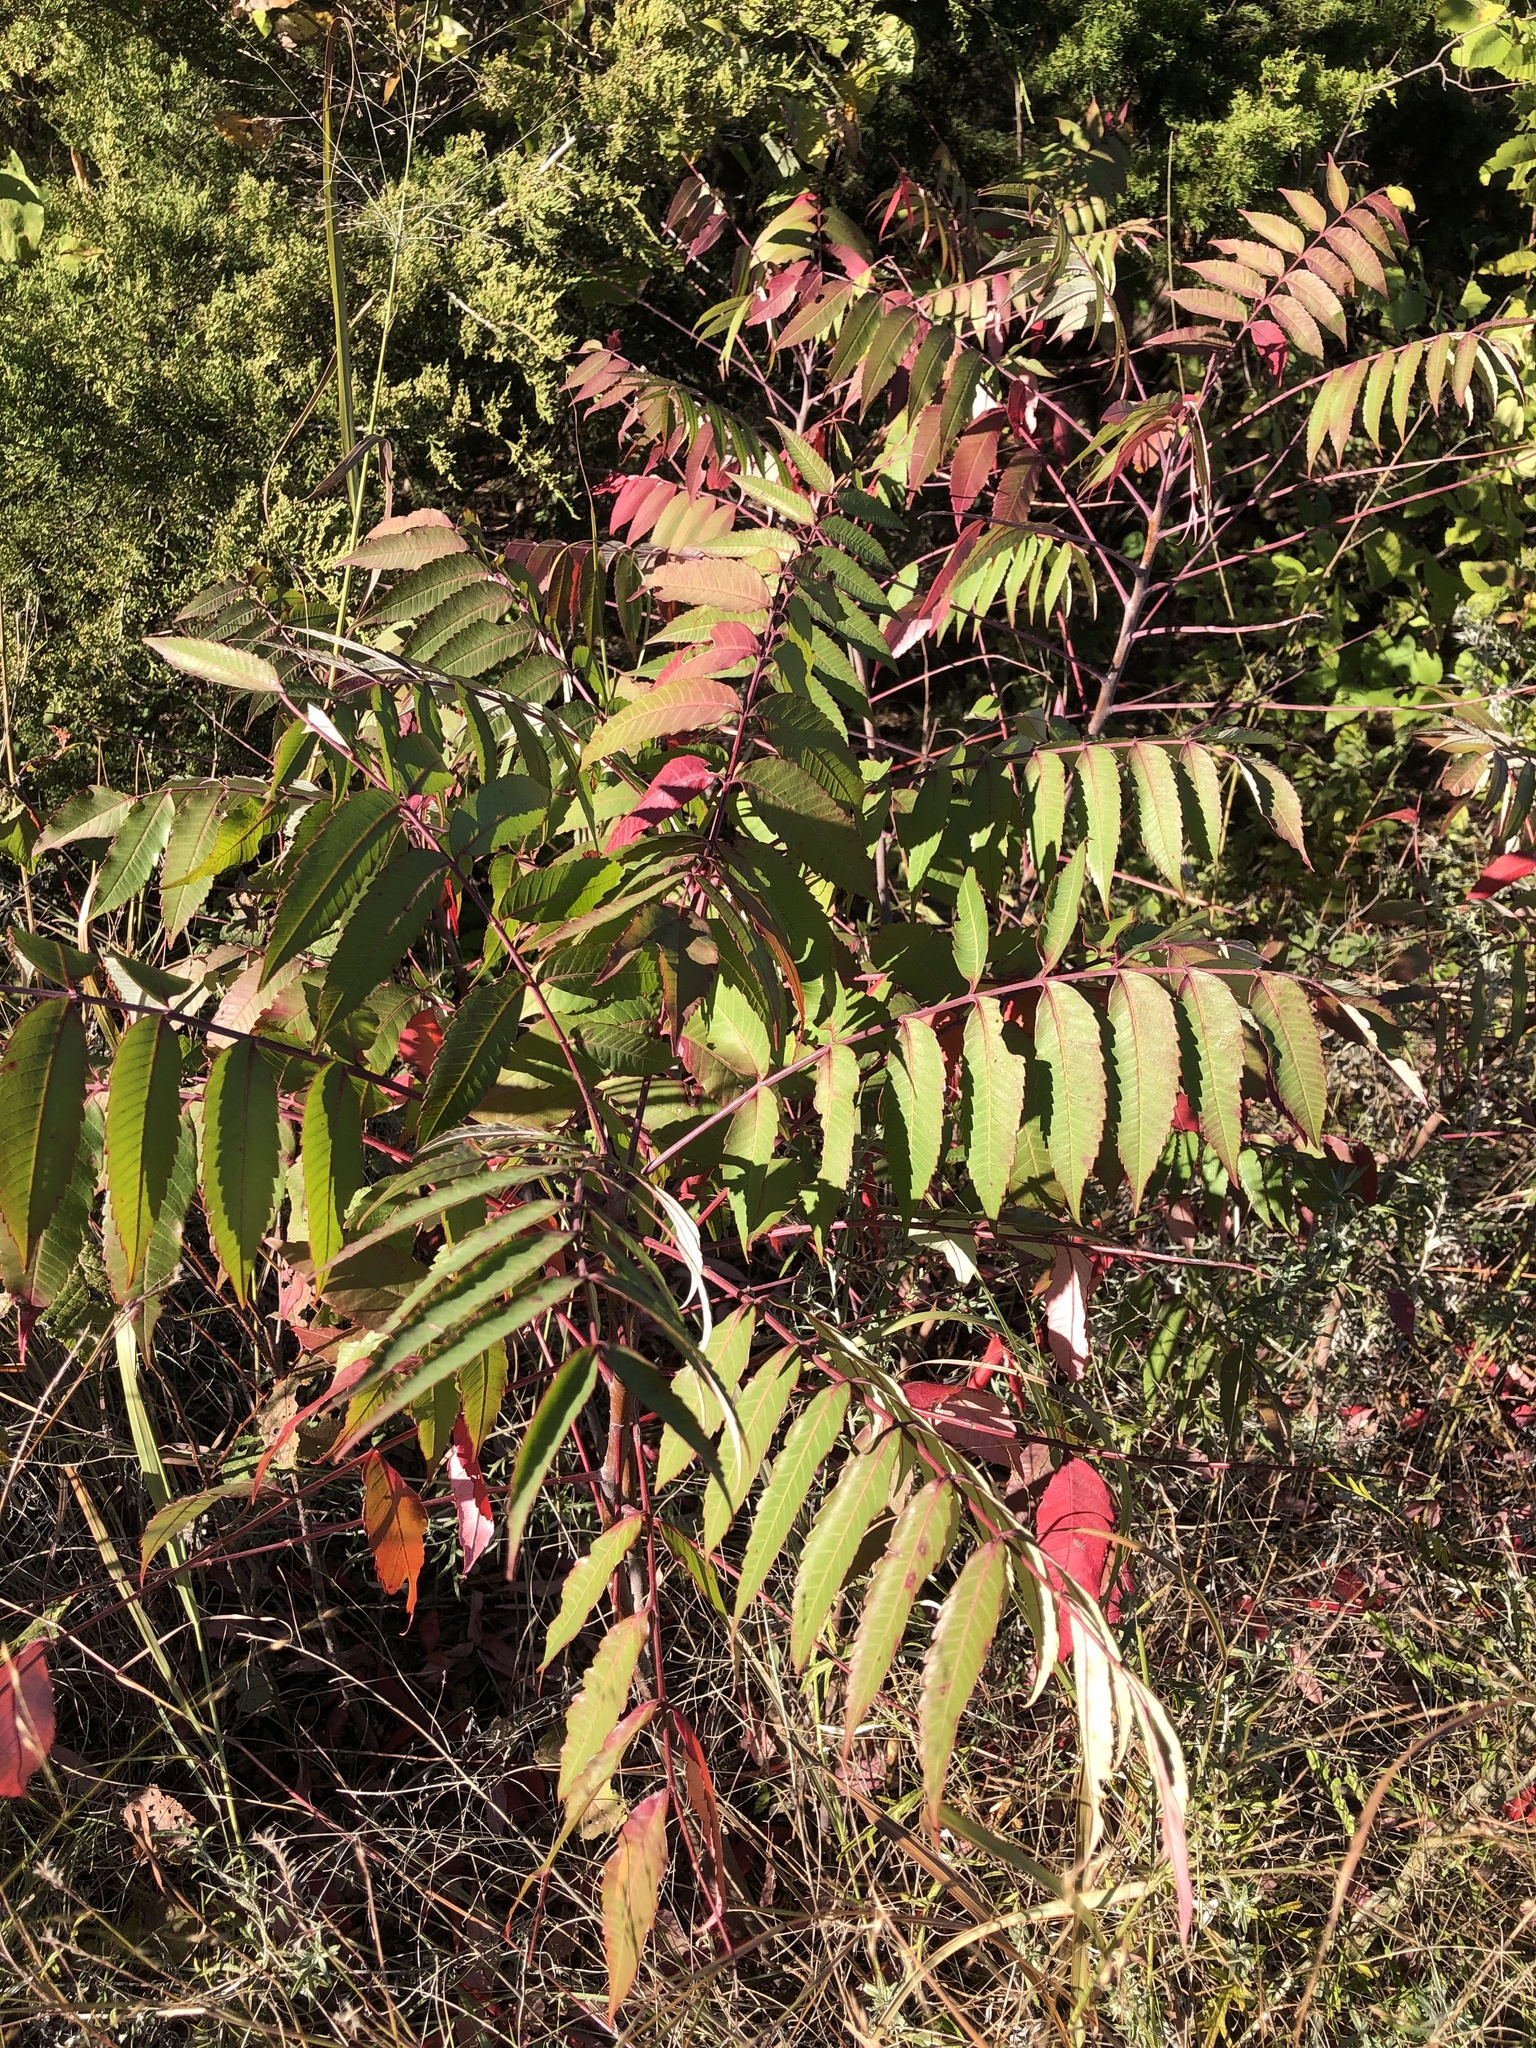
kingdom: Plantae
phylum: Tracheophyta
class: Magnoliopsida
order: Sapindales
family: Anacardiaceae
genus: Rhus
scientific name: Rhus glabra
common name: Scarlet sumac
